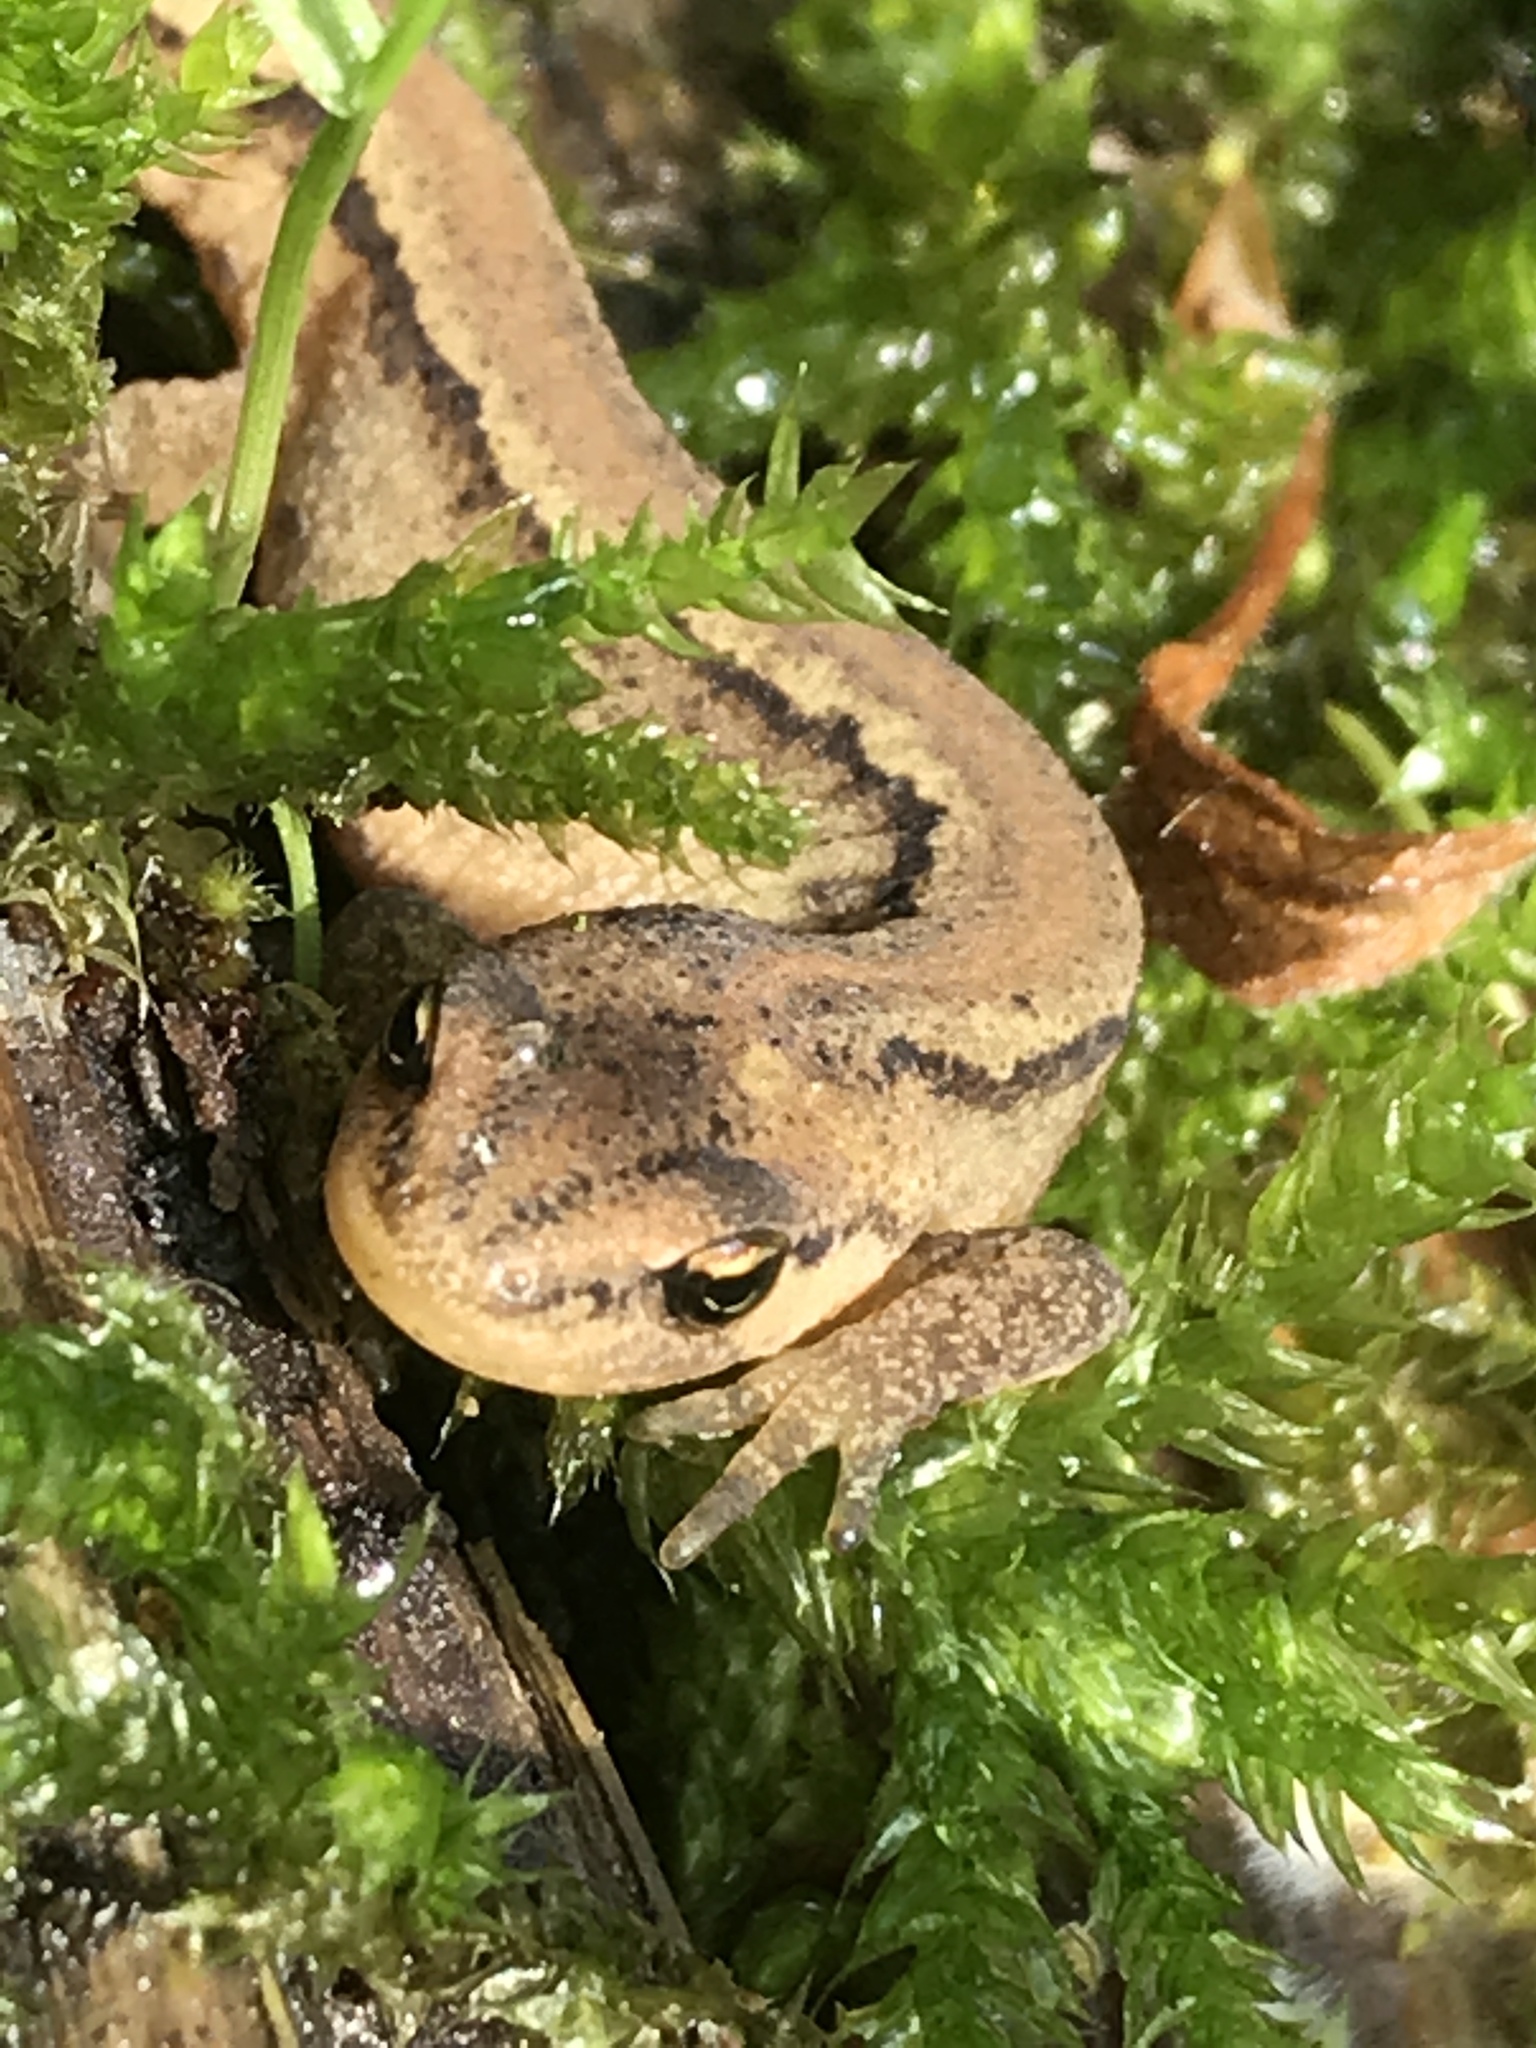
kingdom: Animalia
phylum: Chordata
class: Amphibia
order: Caudata
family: Salamandridae
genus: Lissotriton
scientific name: Lissotriton vulgaris
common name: Smooth newt
